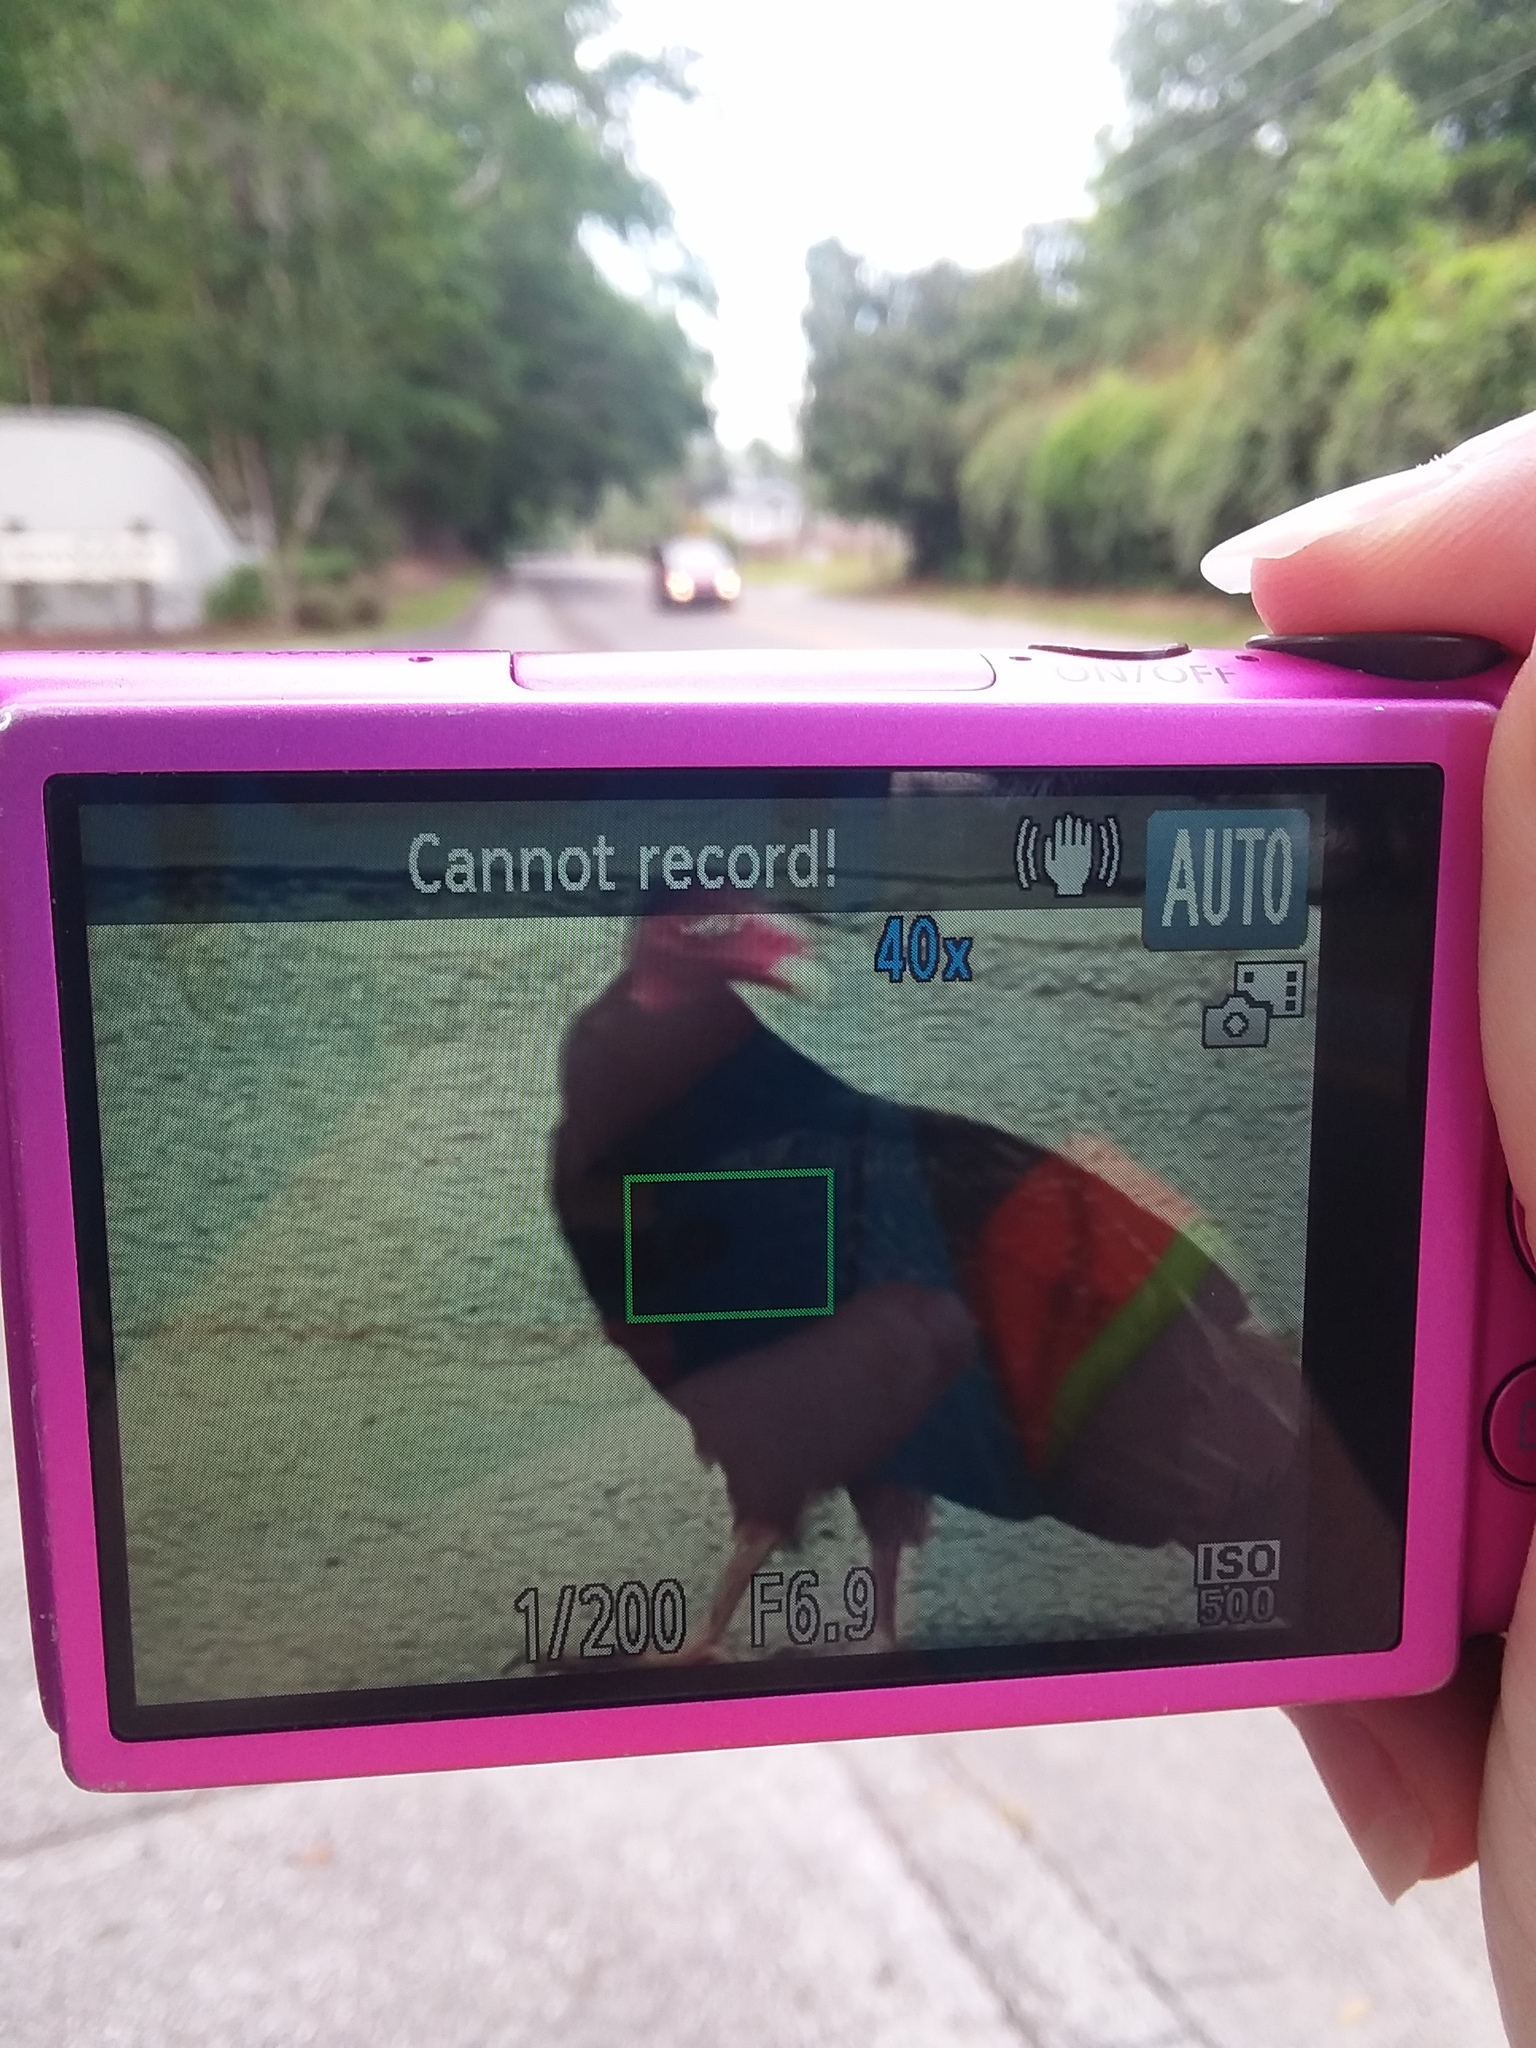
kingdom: Animalia
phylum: Chordata
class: Aves
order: Accipitriformes
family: Cathartidae
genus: Cathartes
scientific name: Cathartes aura
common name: Turkey vulture
